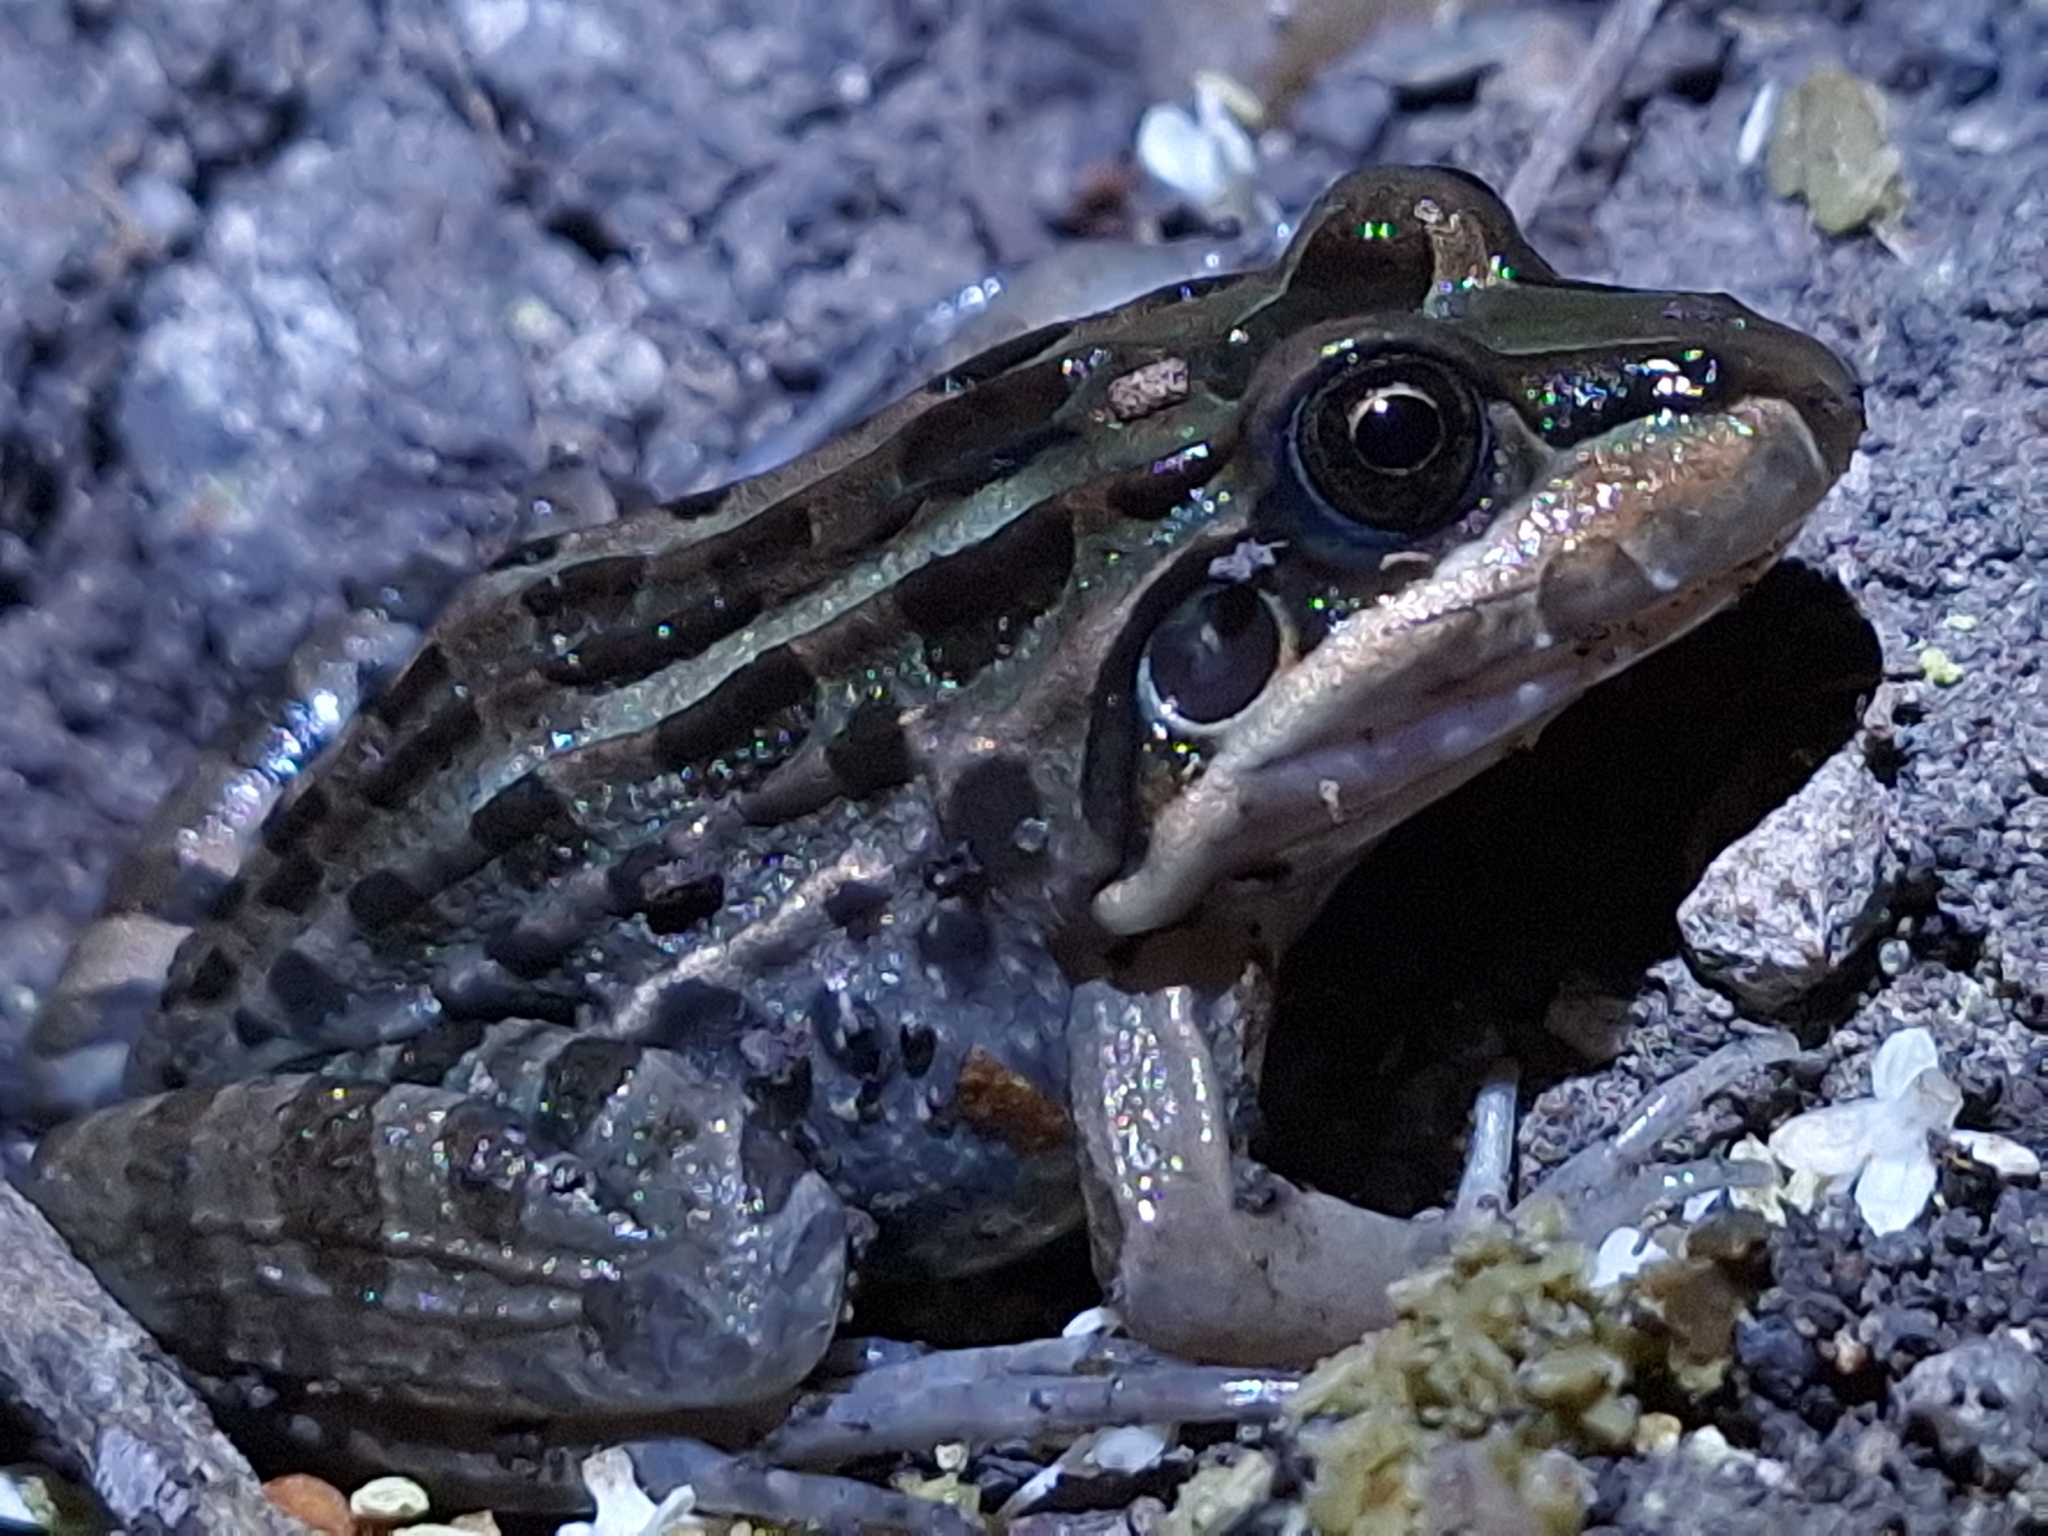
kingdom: Animalia
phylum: Chordata
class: Amphibia
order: Anura
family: Leptodactylidae
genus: Leptodactylus
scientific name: Leptodactylus luctator
